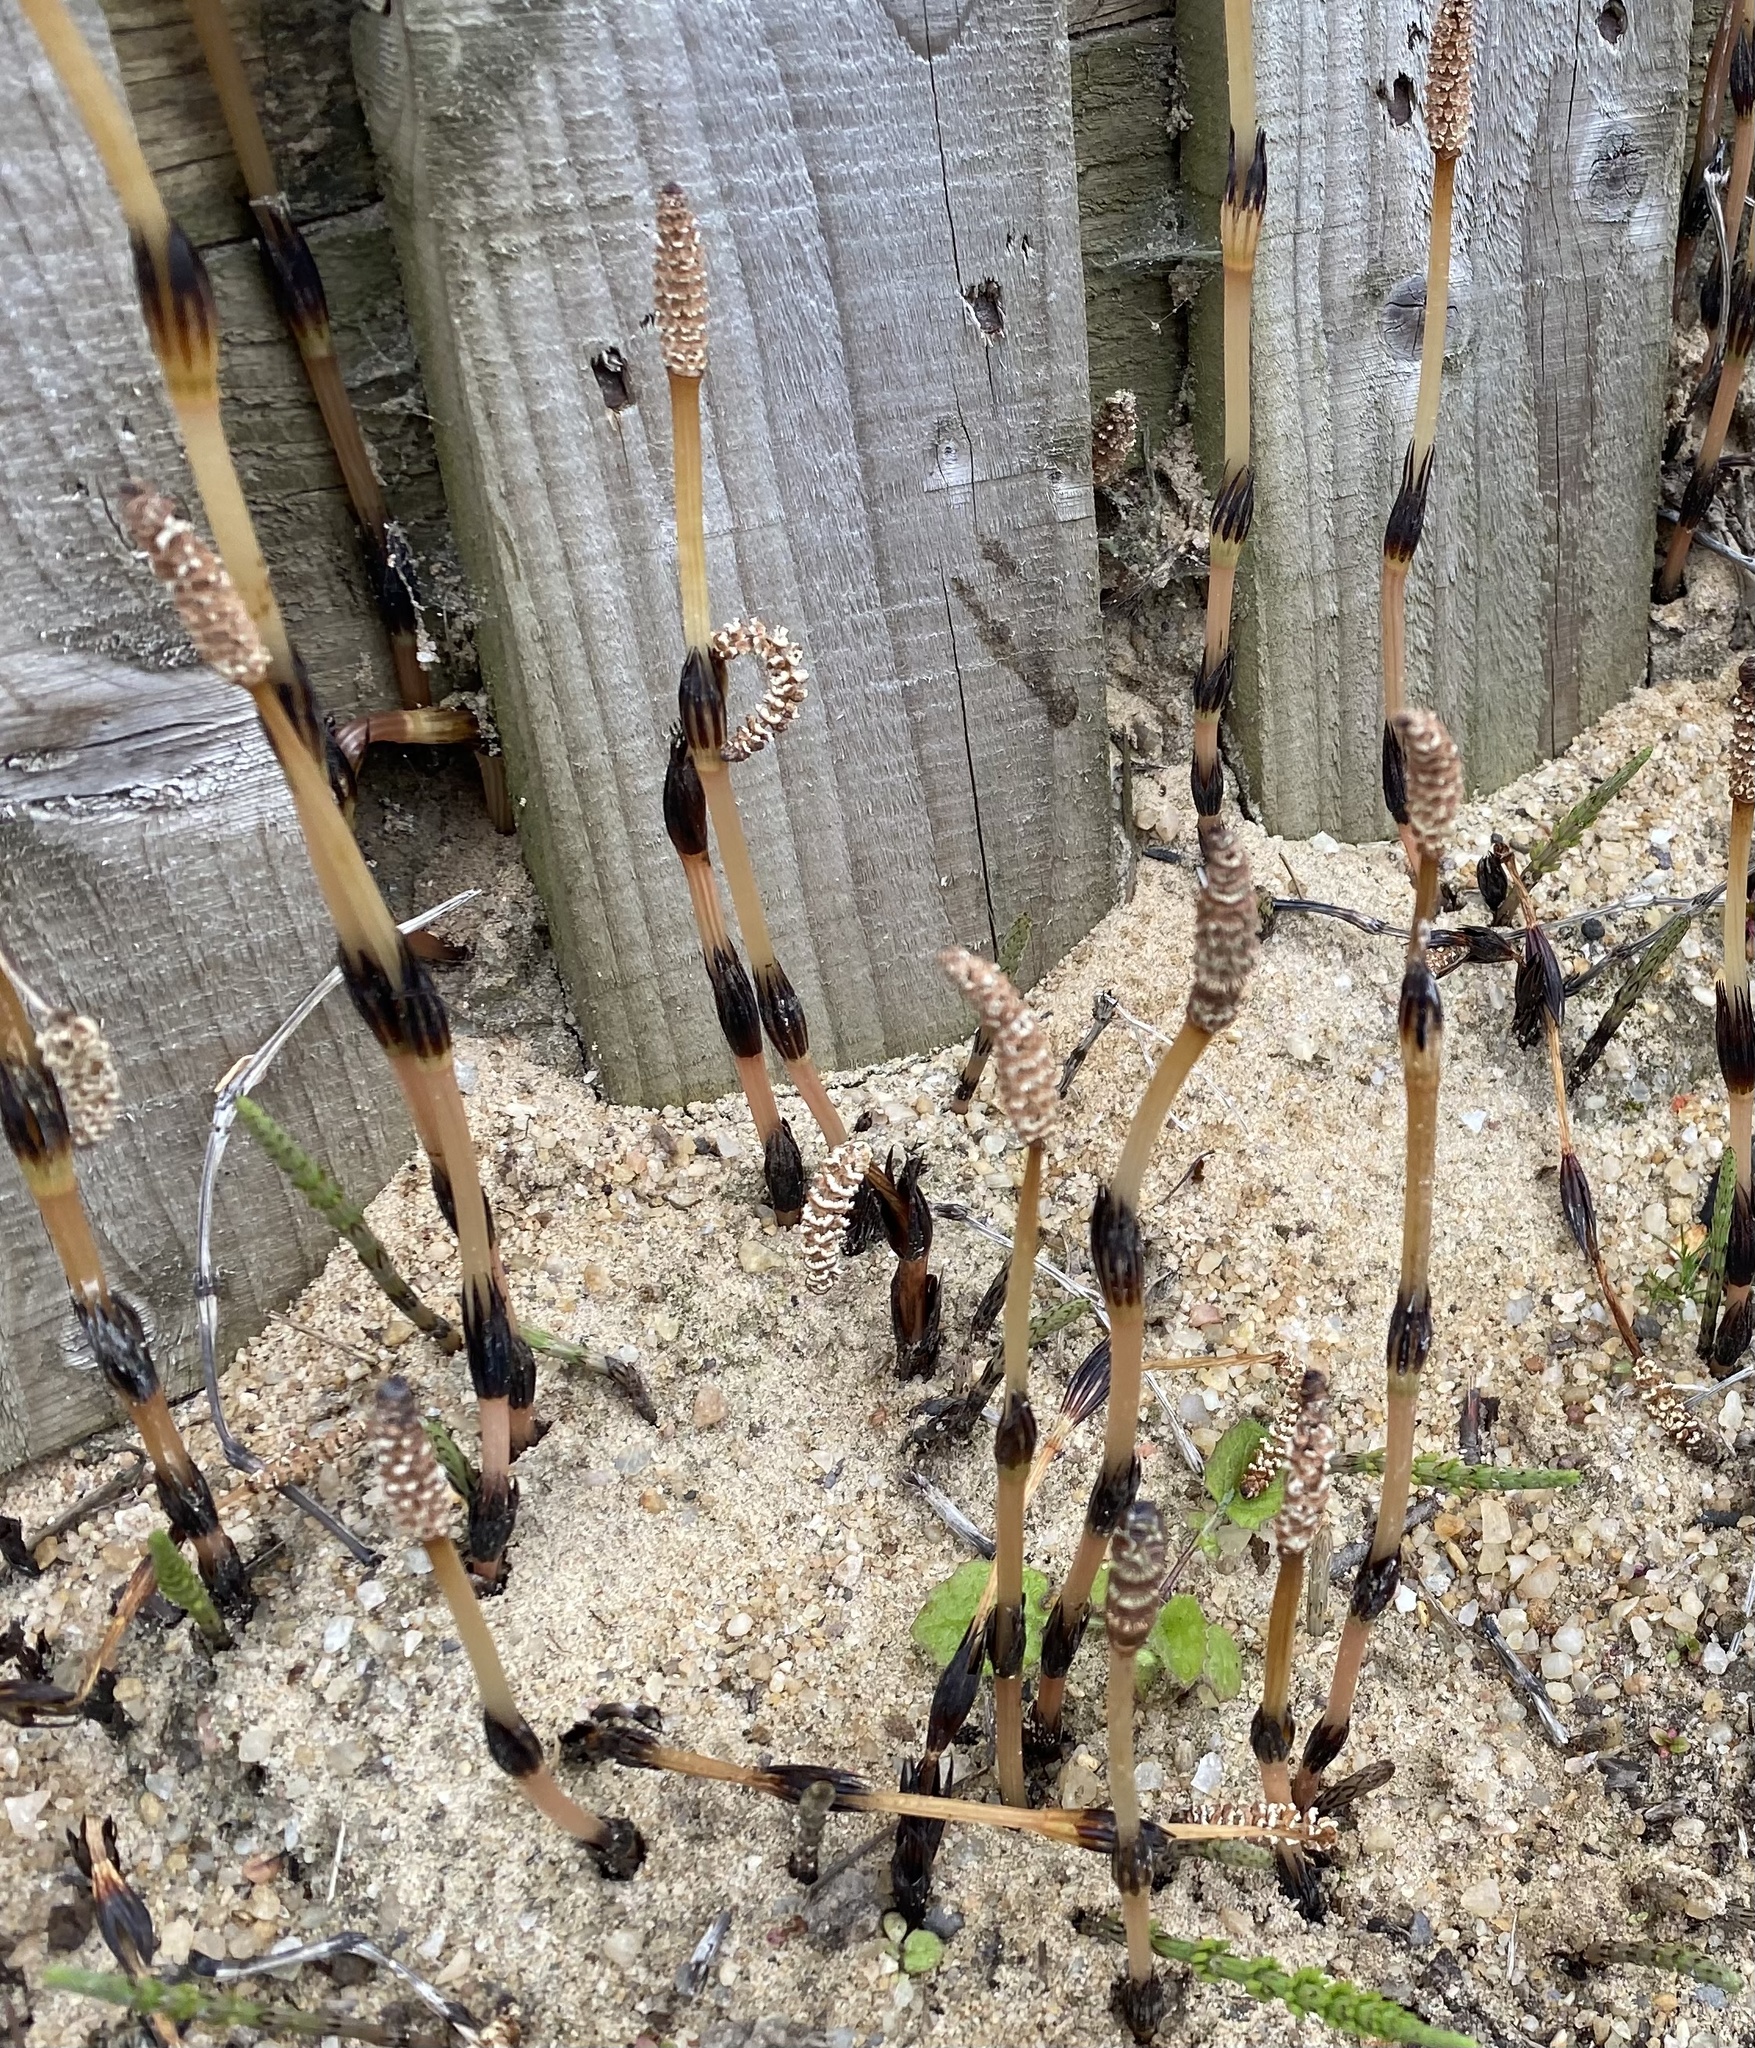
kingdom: Plantae
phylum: Tracheophyta
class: Polypodiopsida
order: Equisetales
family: Equisetaceae
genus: Equisetum
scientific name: Equisetum arvense
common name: Field horsetail
